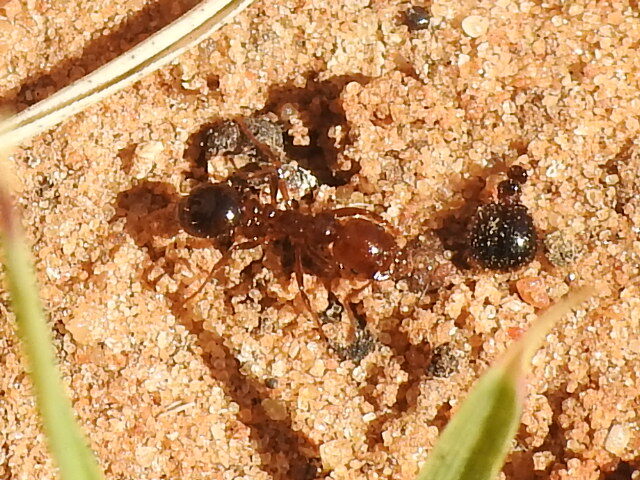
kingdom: Animalia
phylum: Arthropoda
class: Insecta
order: Hymenoptera
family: Formicidae
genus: Solenopsis
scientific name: Solenopsis invicta
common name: Red imported fire ant
